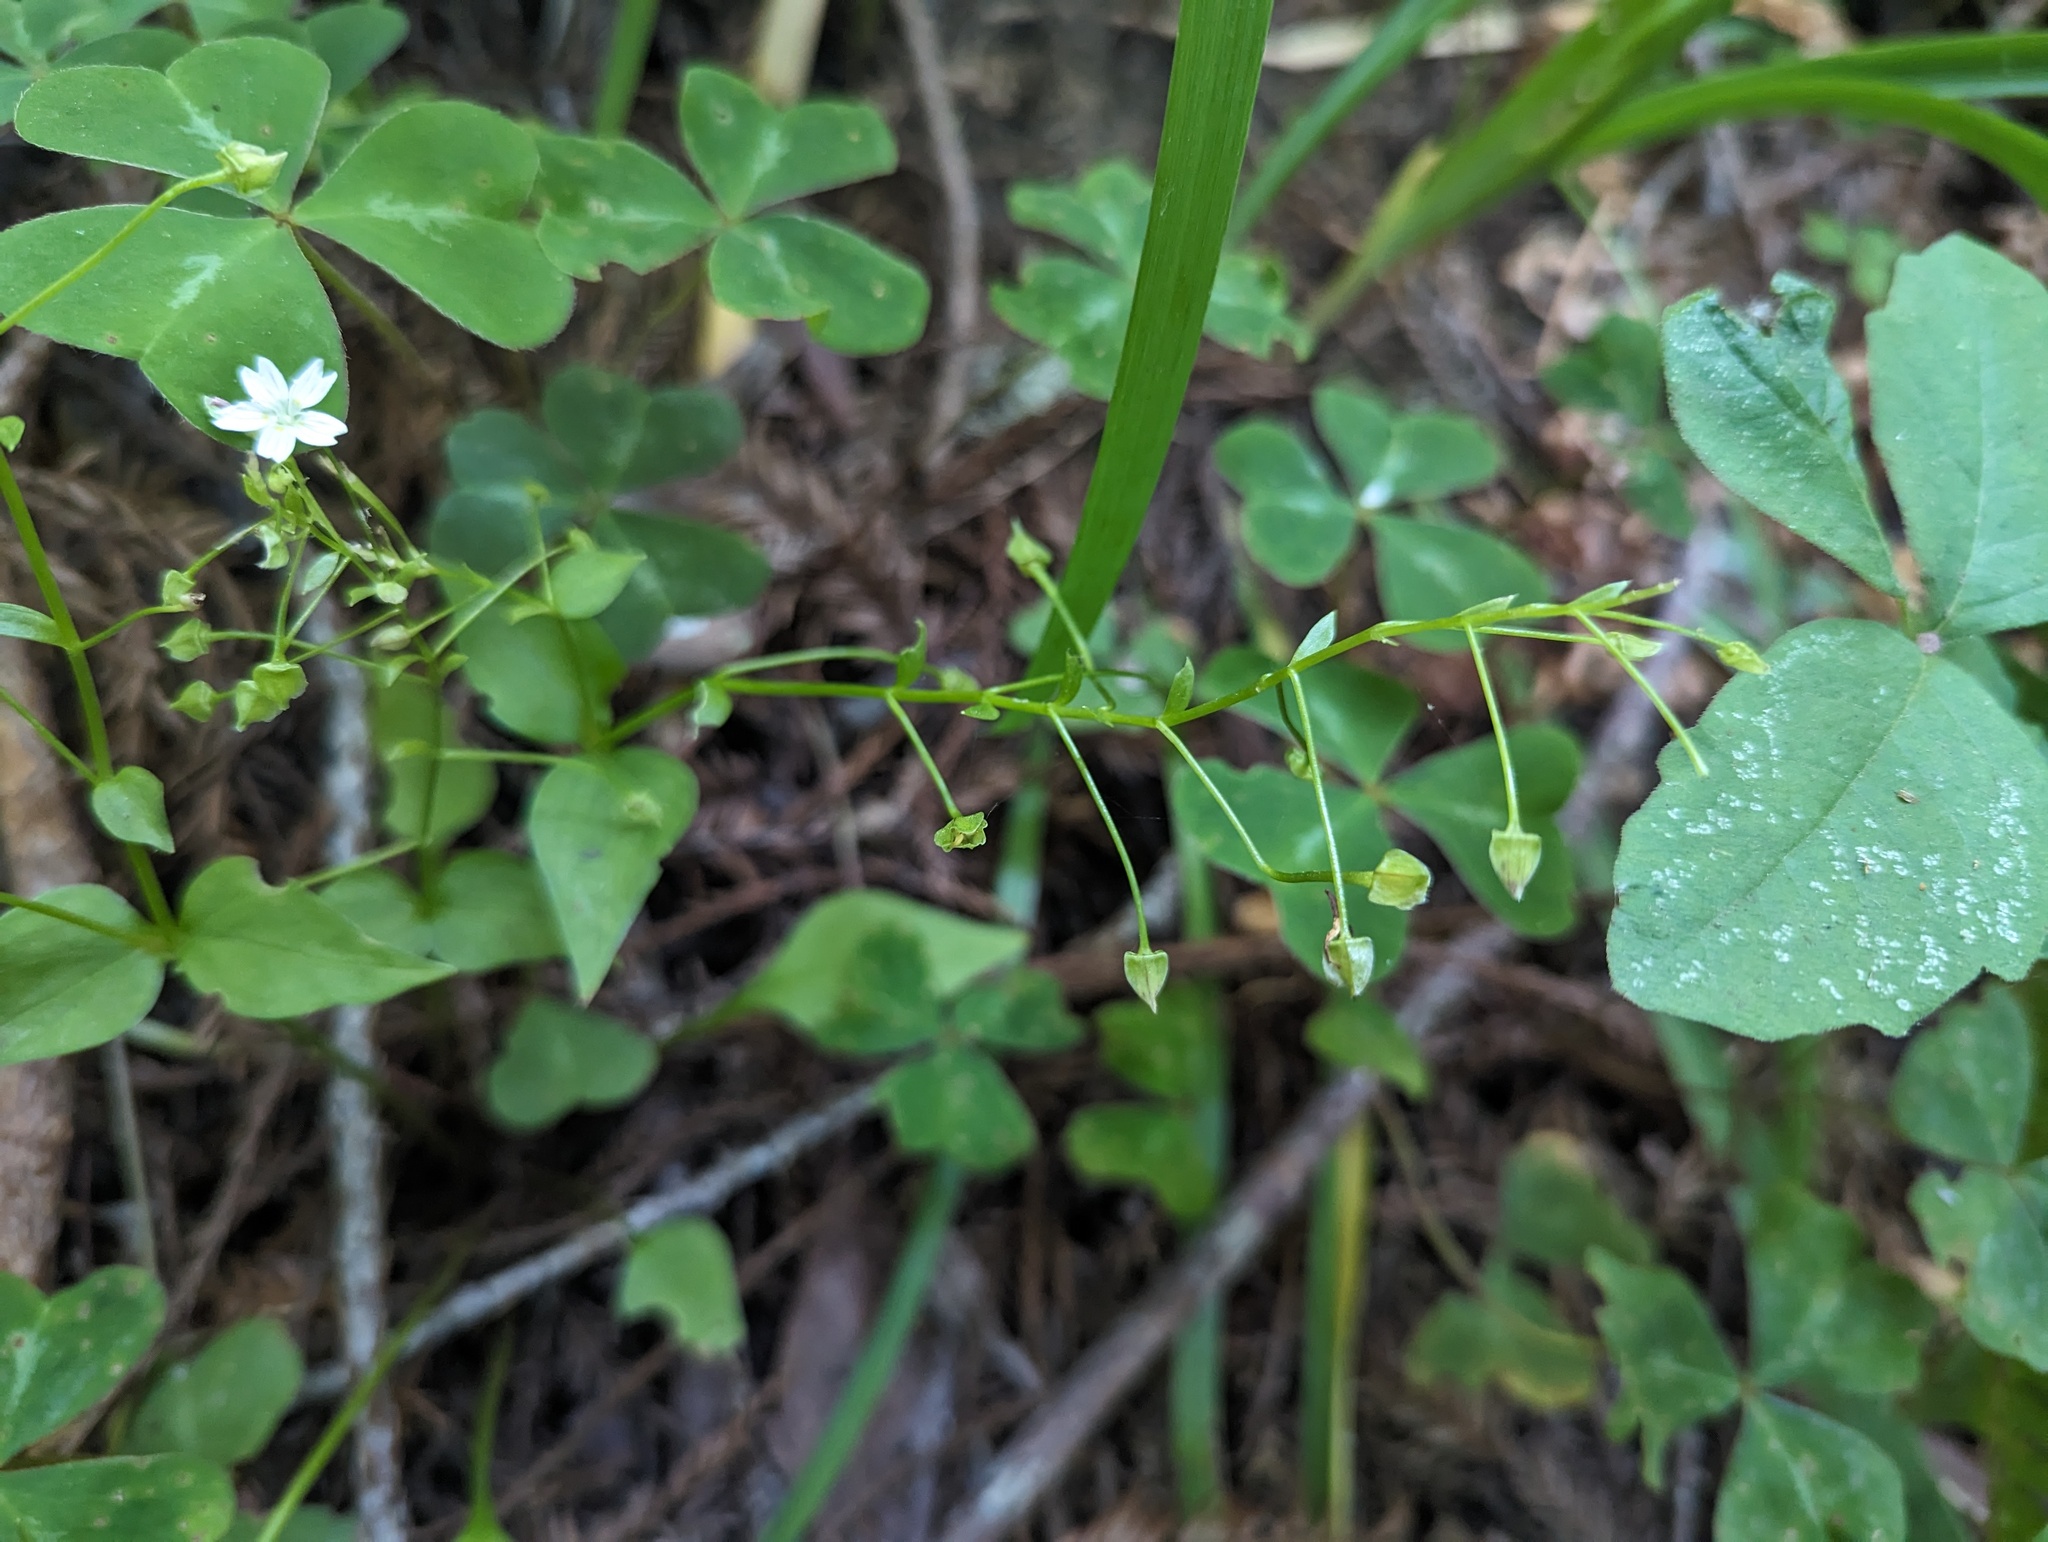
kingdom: Plantae
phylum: Tracheophyta
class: Magnoliopsida
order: Caryophyllales
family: Montiaceae
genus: Claytonia
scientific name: Claytonia sibirica
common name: Pink purslane
